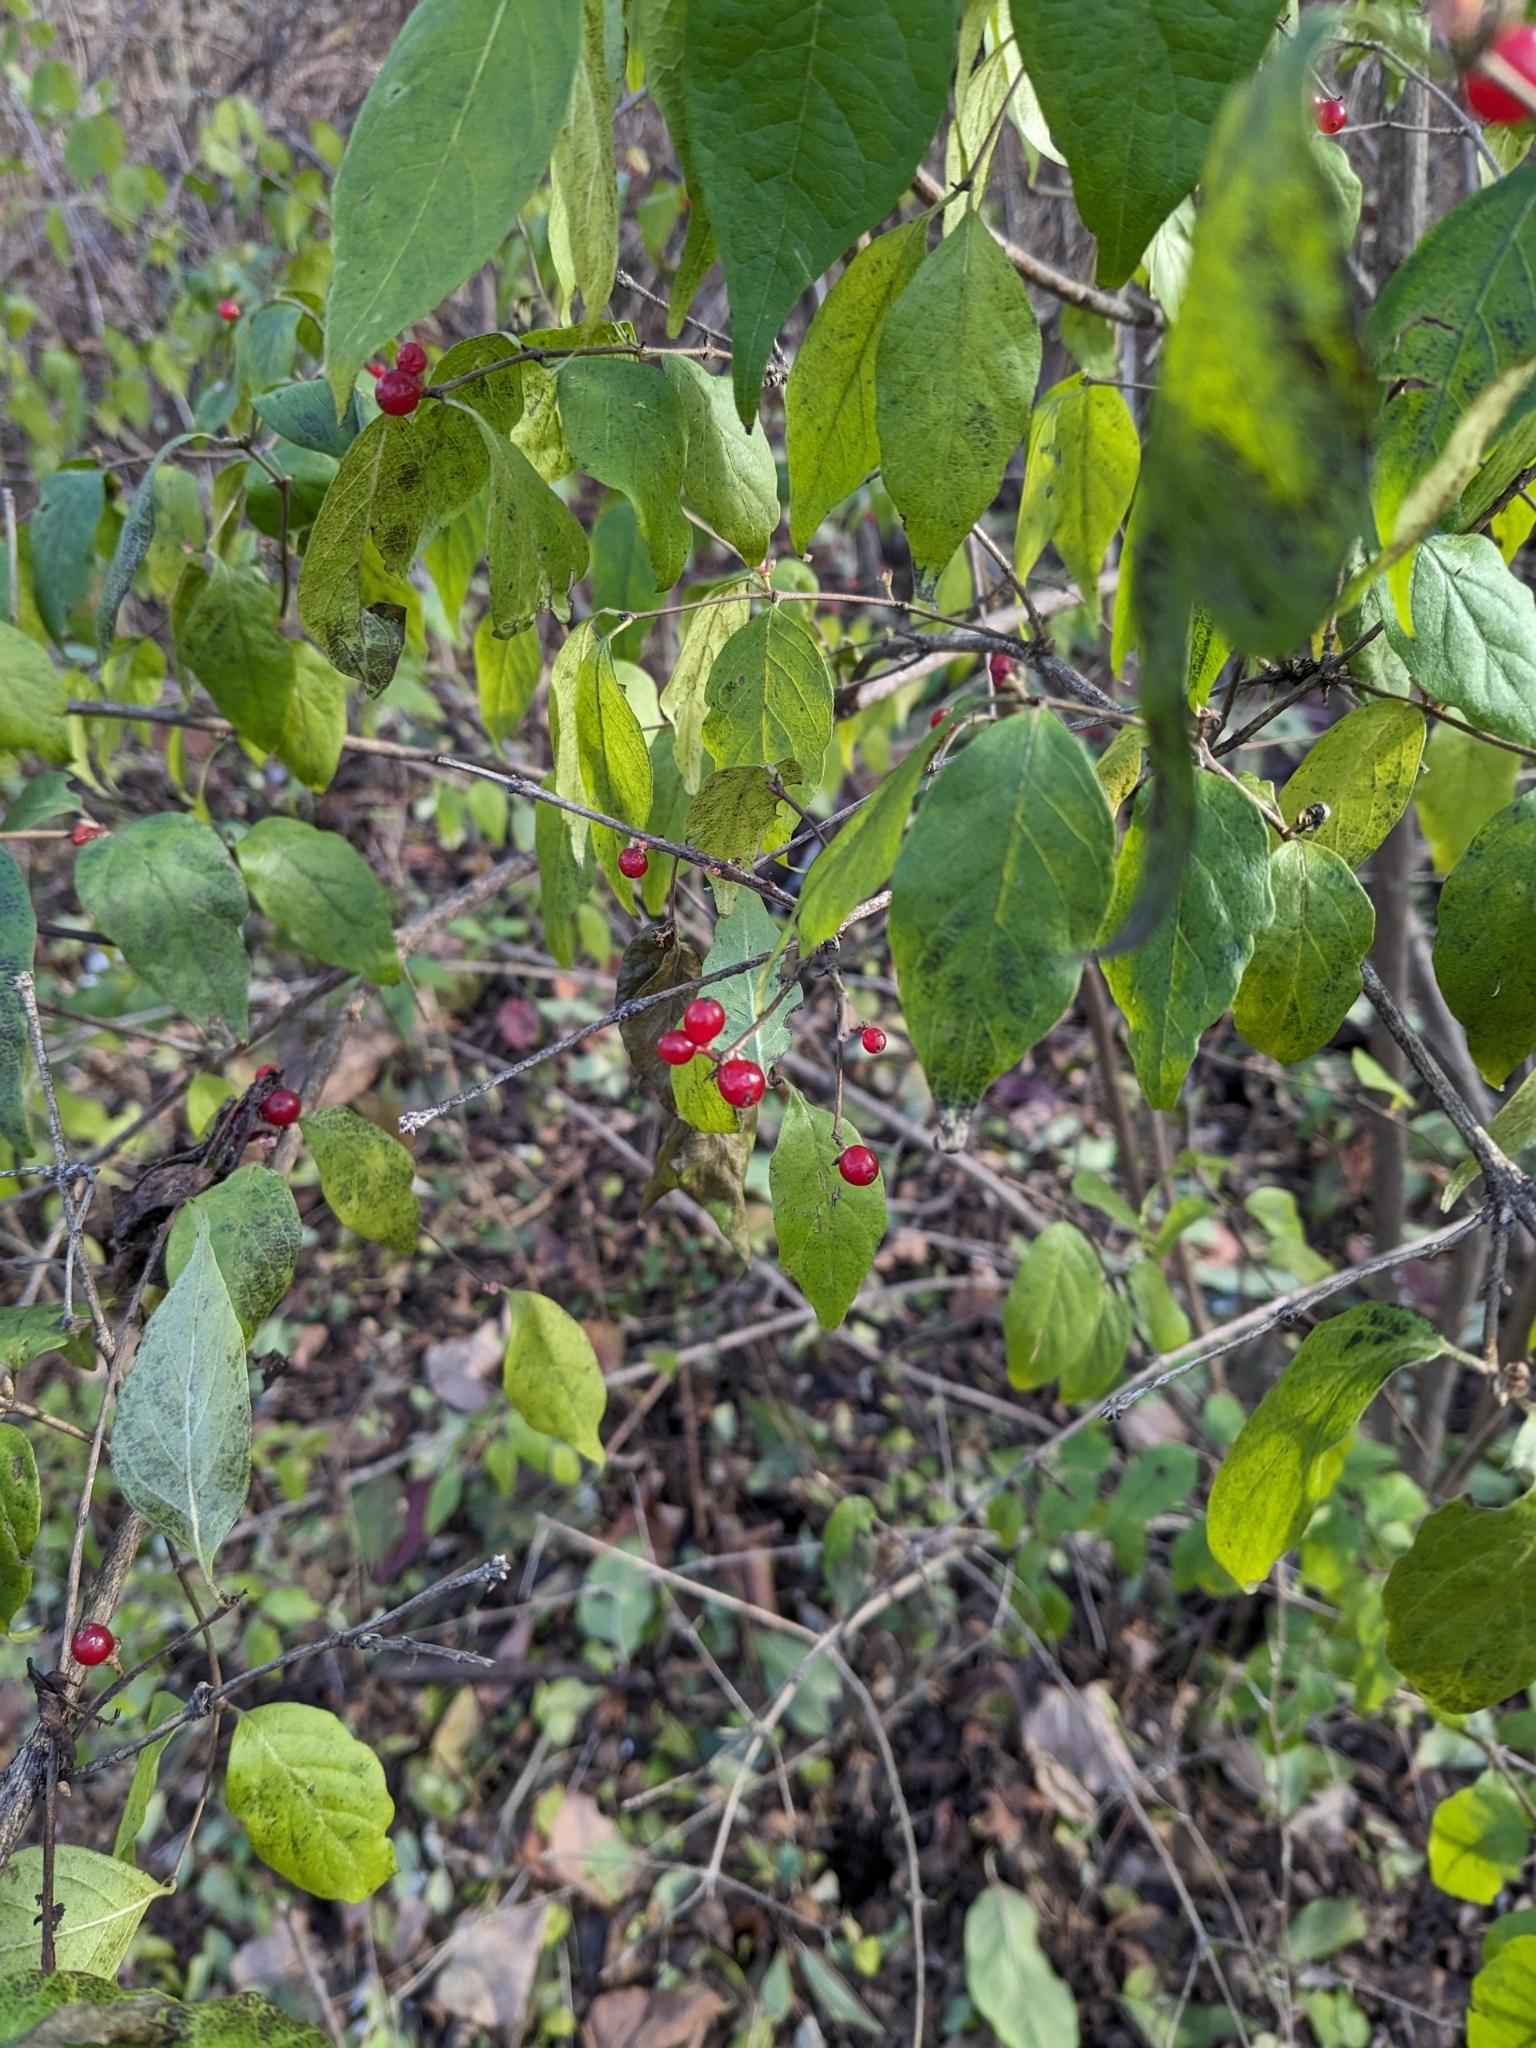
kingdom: Plantae
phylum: Tracheophyta
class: Magnoliopsida
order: Dipsacales
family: Caprifoliaceae
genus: Lonicera
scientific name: Lonicera maackii
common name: Amur honeysuckle
